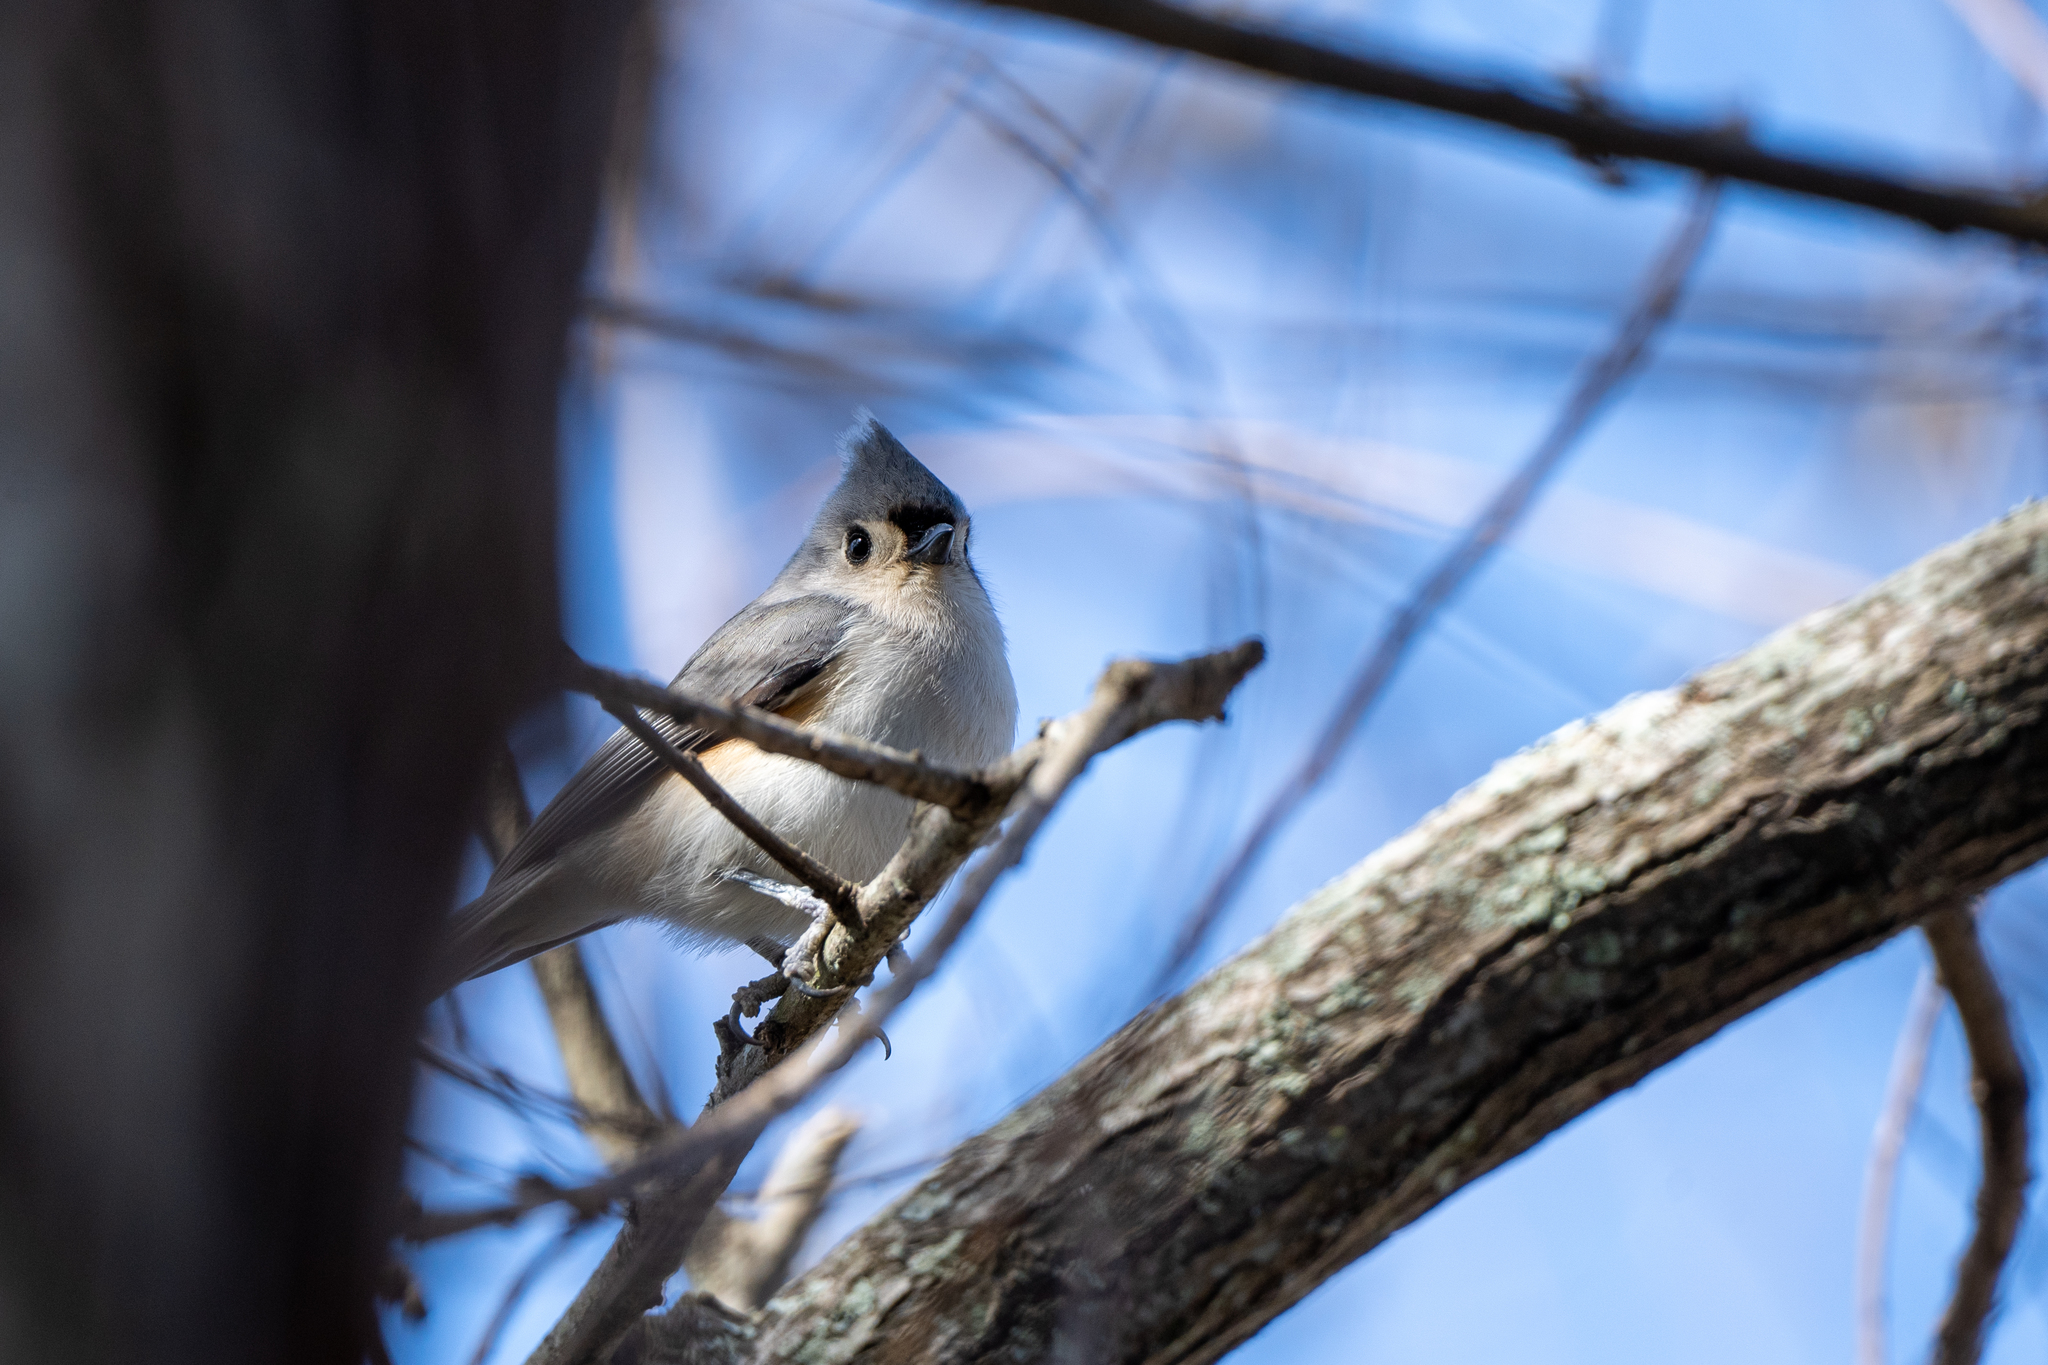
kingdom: Animalia
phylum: Chordata
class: Aves
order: Passeriformes
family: Paridae
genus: Baeolophus
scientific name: Baeolophus bicolor
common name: Tufted titmouse
